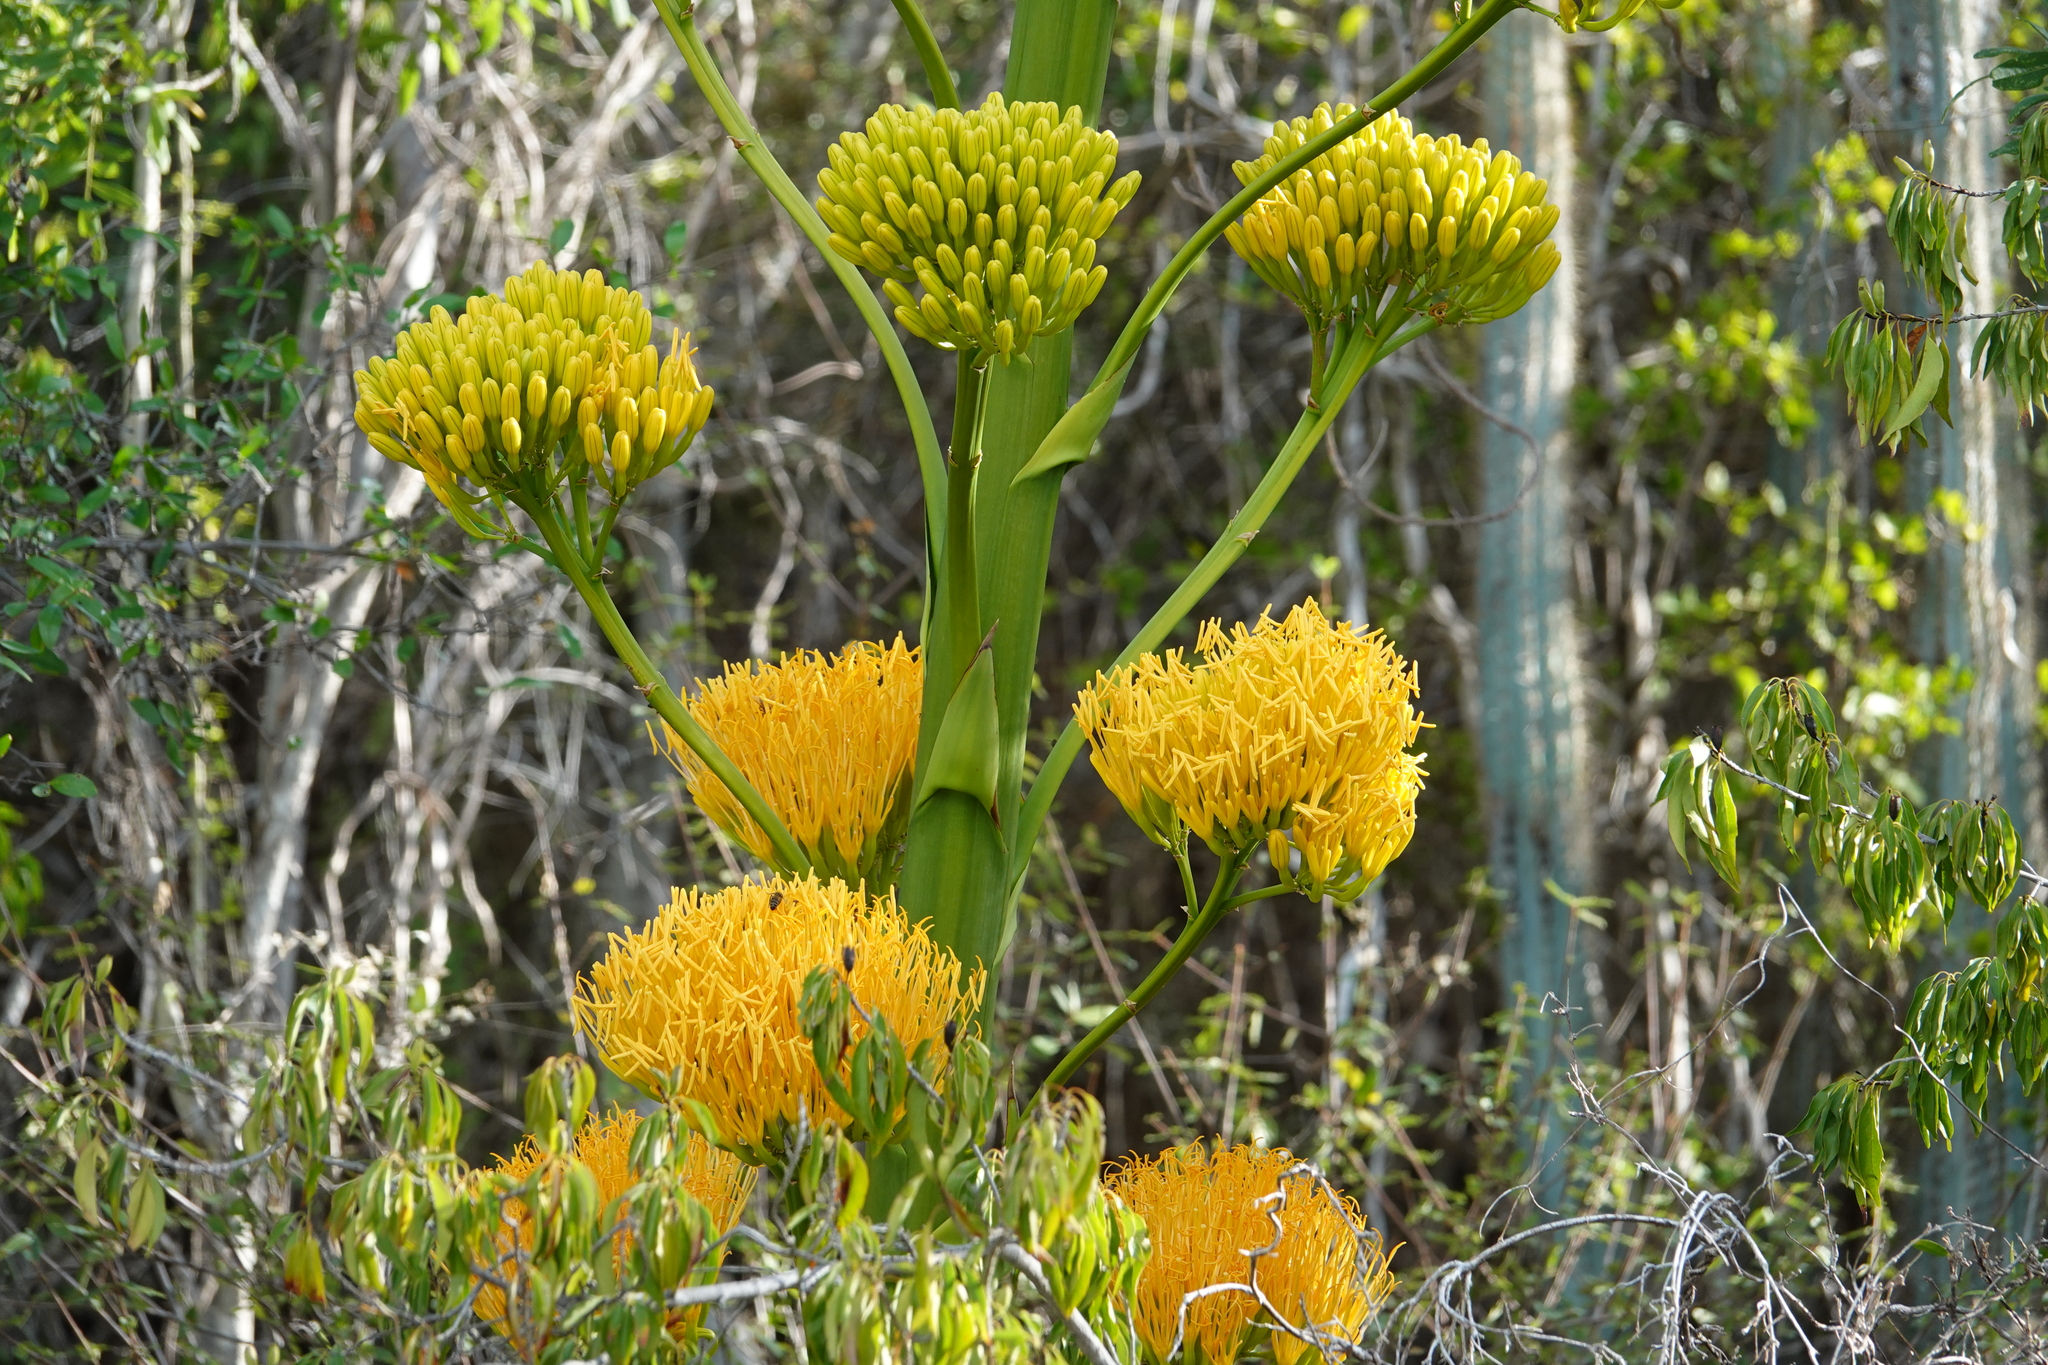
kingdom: Plantae
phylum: Tracheophyta
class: Liliopsida
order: Asparagales
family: Asparagaceae
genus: Agave
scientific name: Agave acicularis
